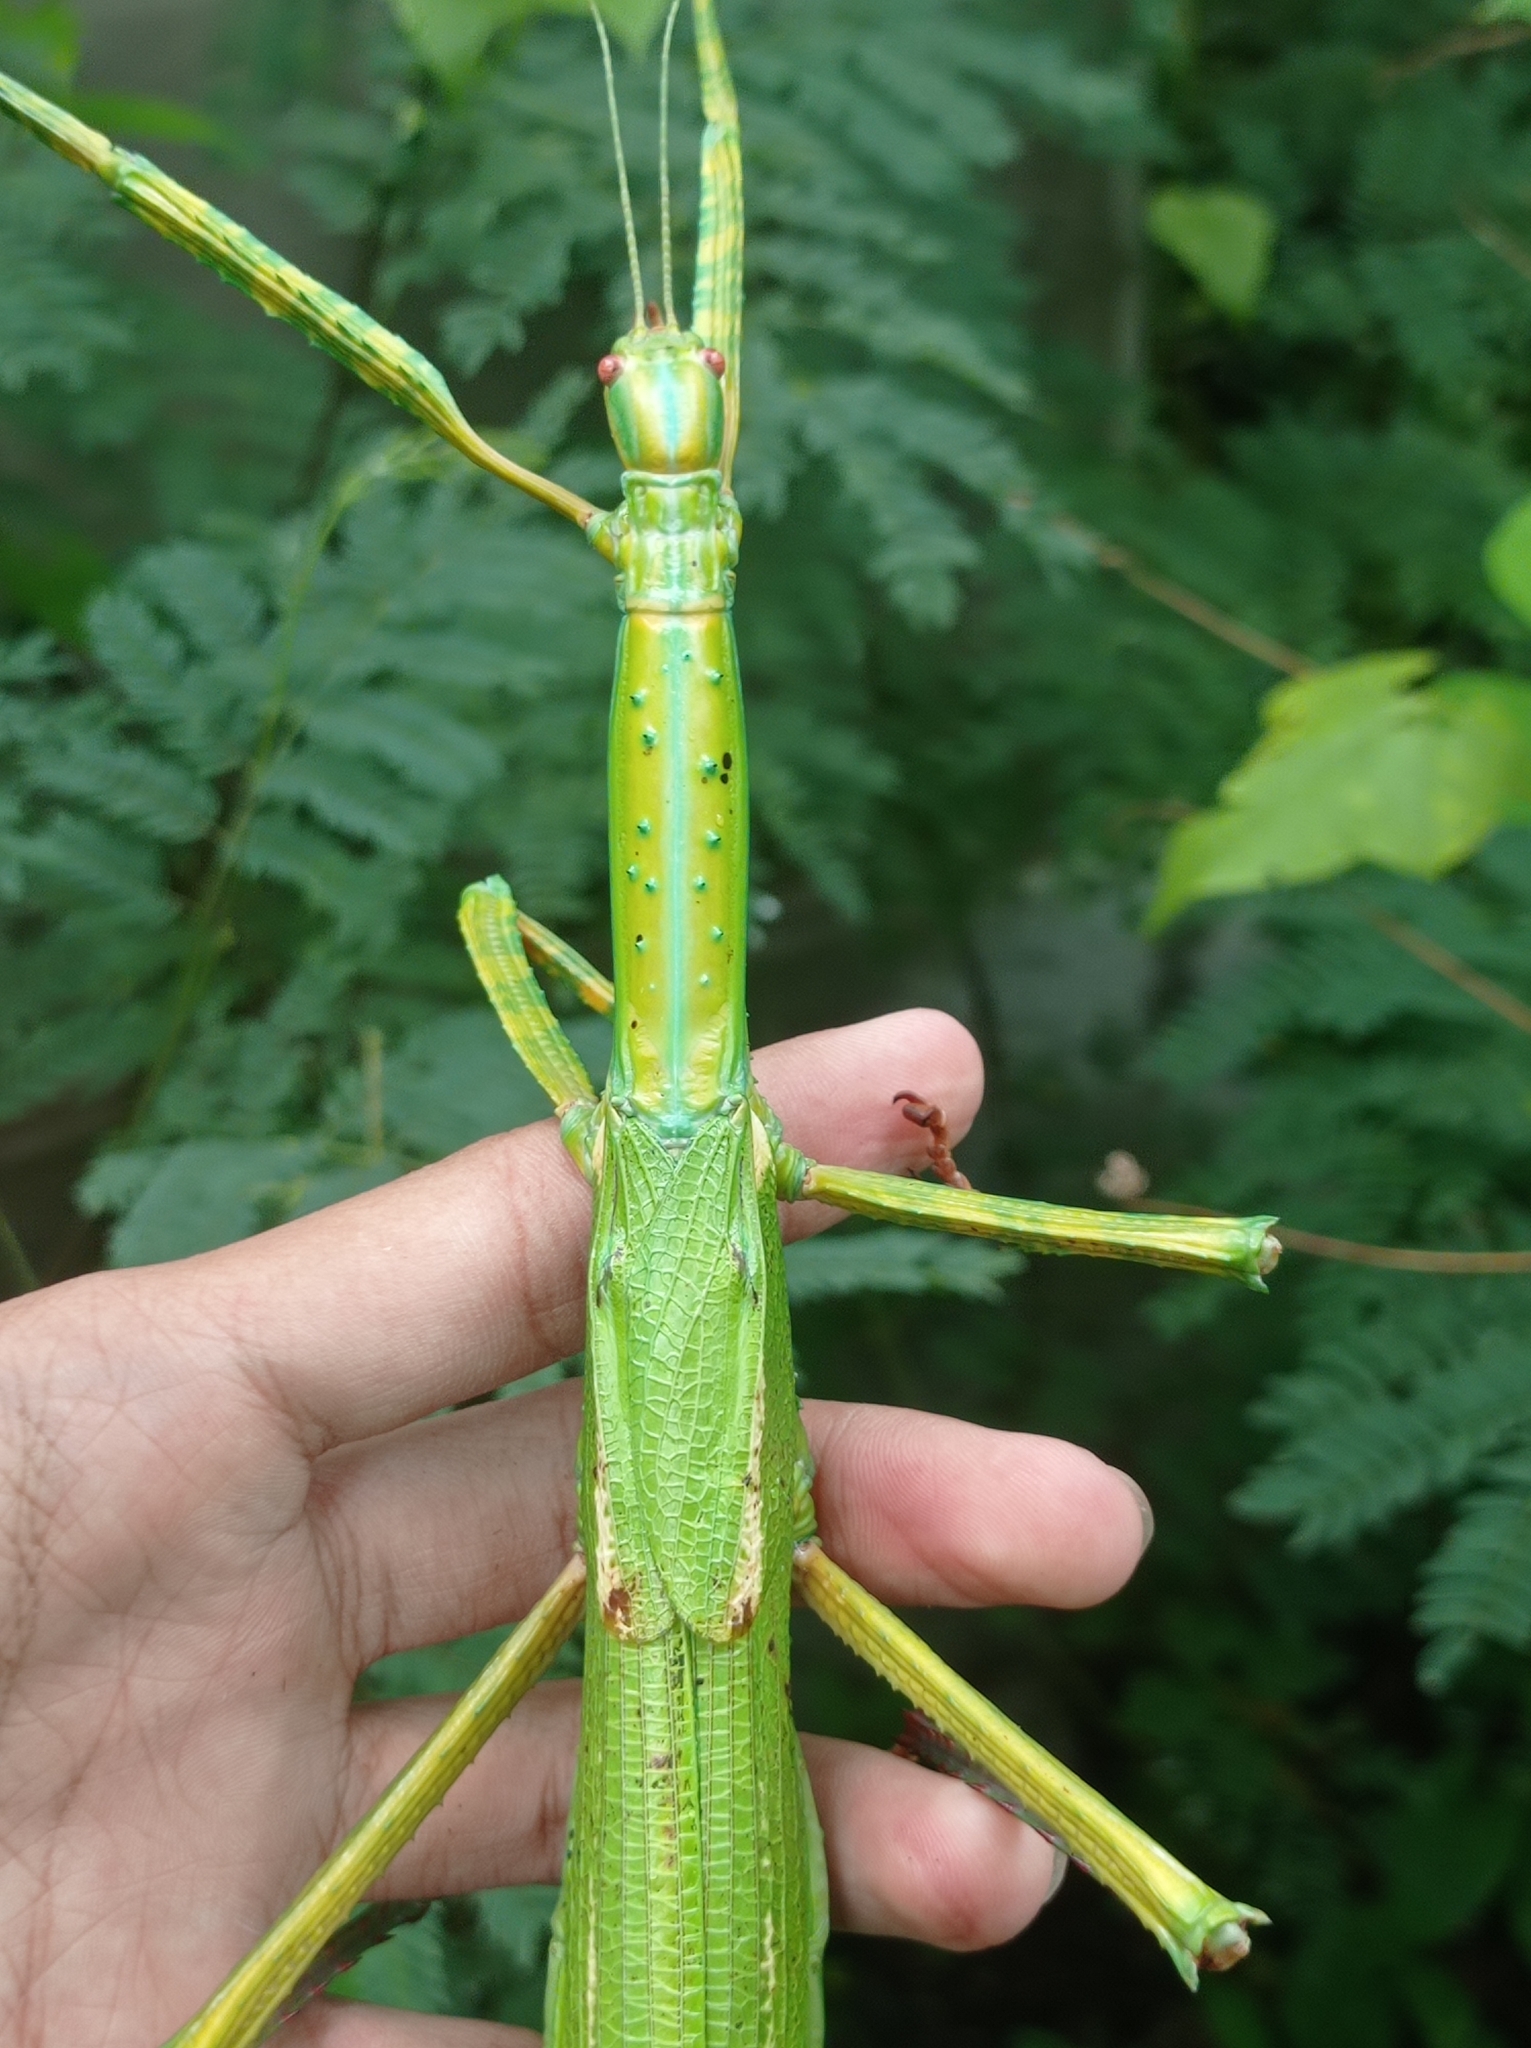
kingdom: Animalia
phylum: Arthropoda
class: Insecta
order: Phasmida
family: Phasmatidae
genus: Eurycnema
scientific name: Eurycnema versirubra
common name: Red-winged green giant stick-insect
